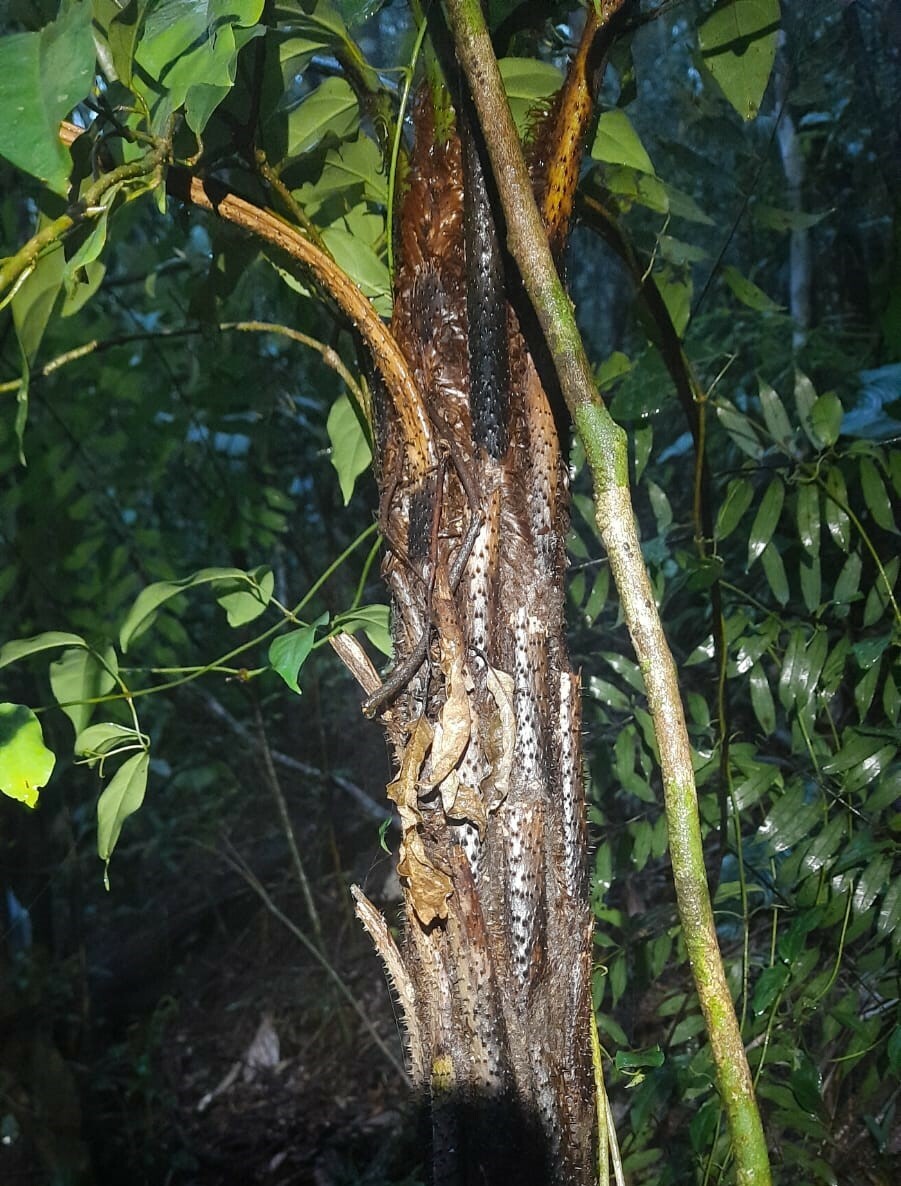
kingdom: Plantae
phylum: Tracheophyta
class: Polypodiopsida
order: Cyatheales
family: Cyatheaceae
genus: Cyathea
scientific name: Cyathea corcovadensis
